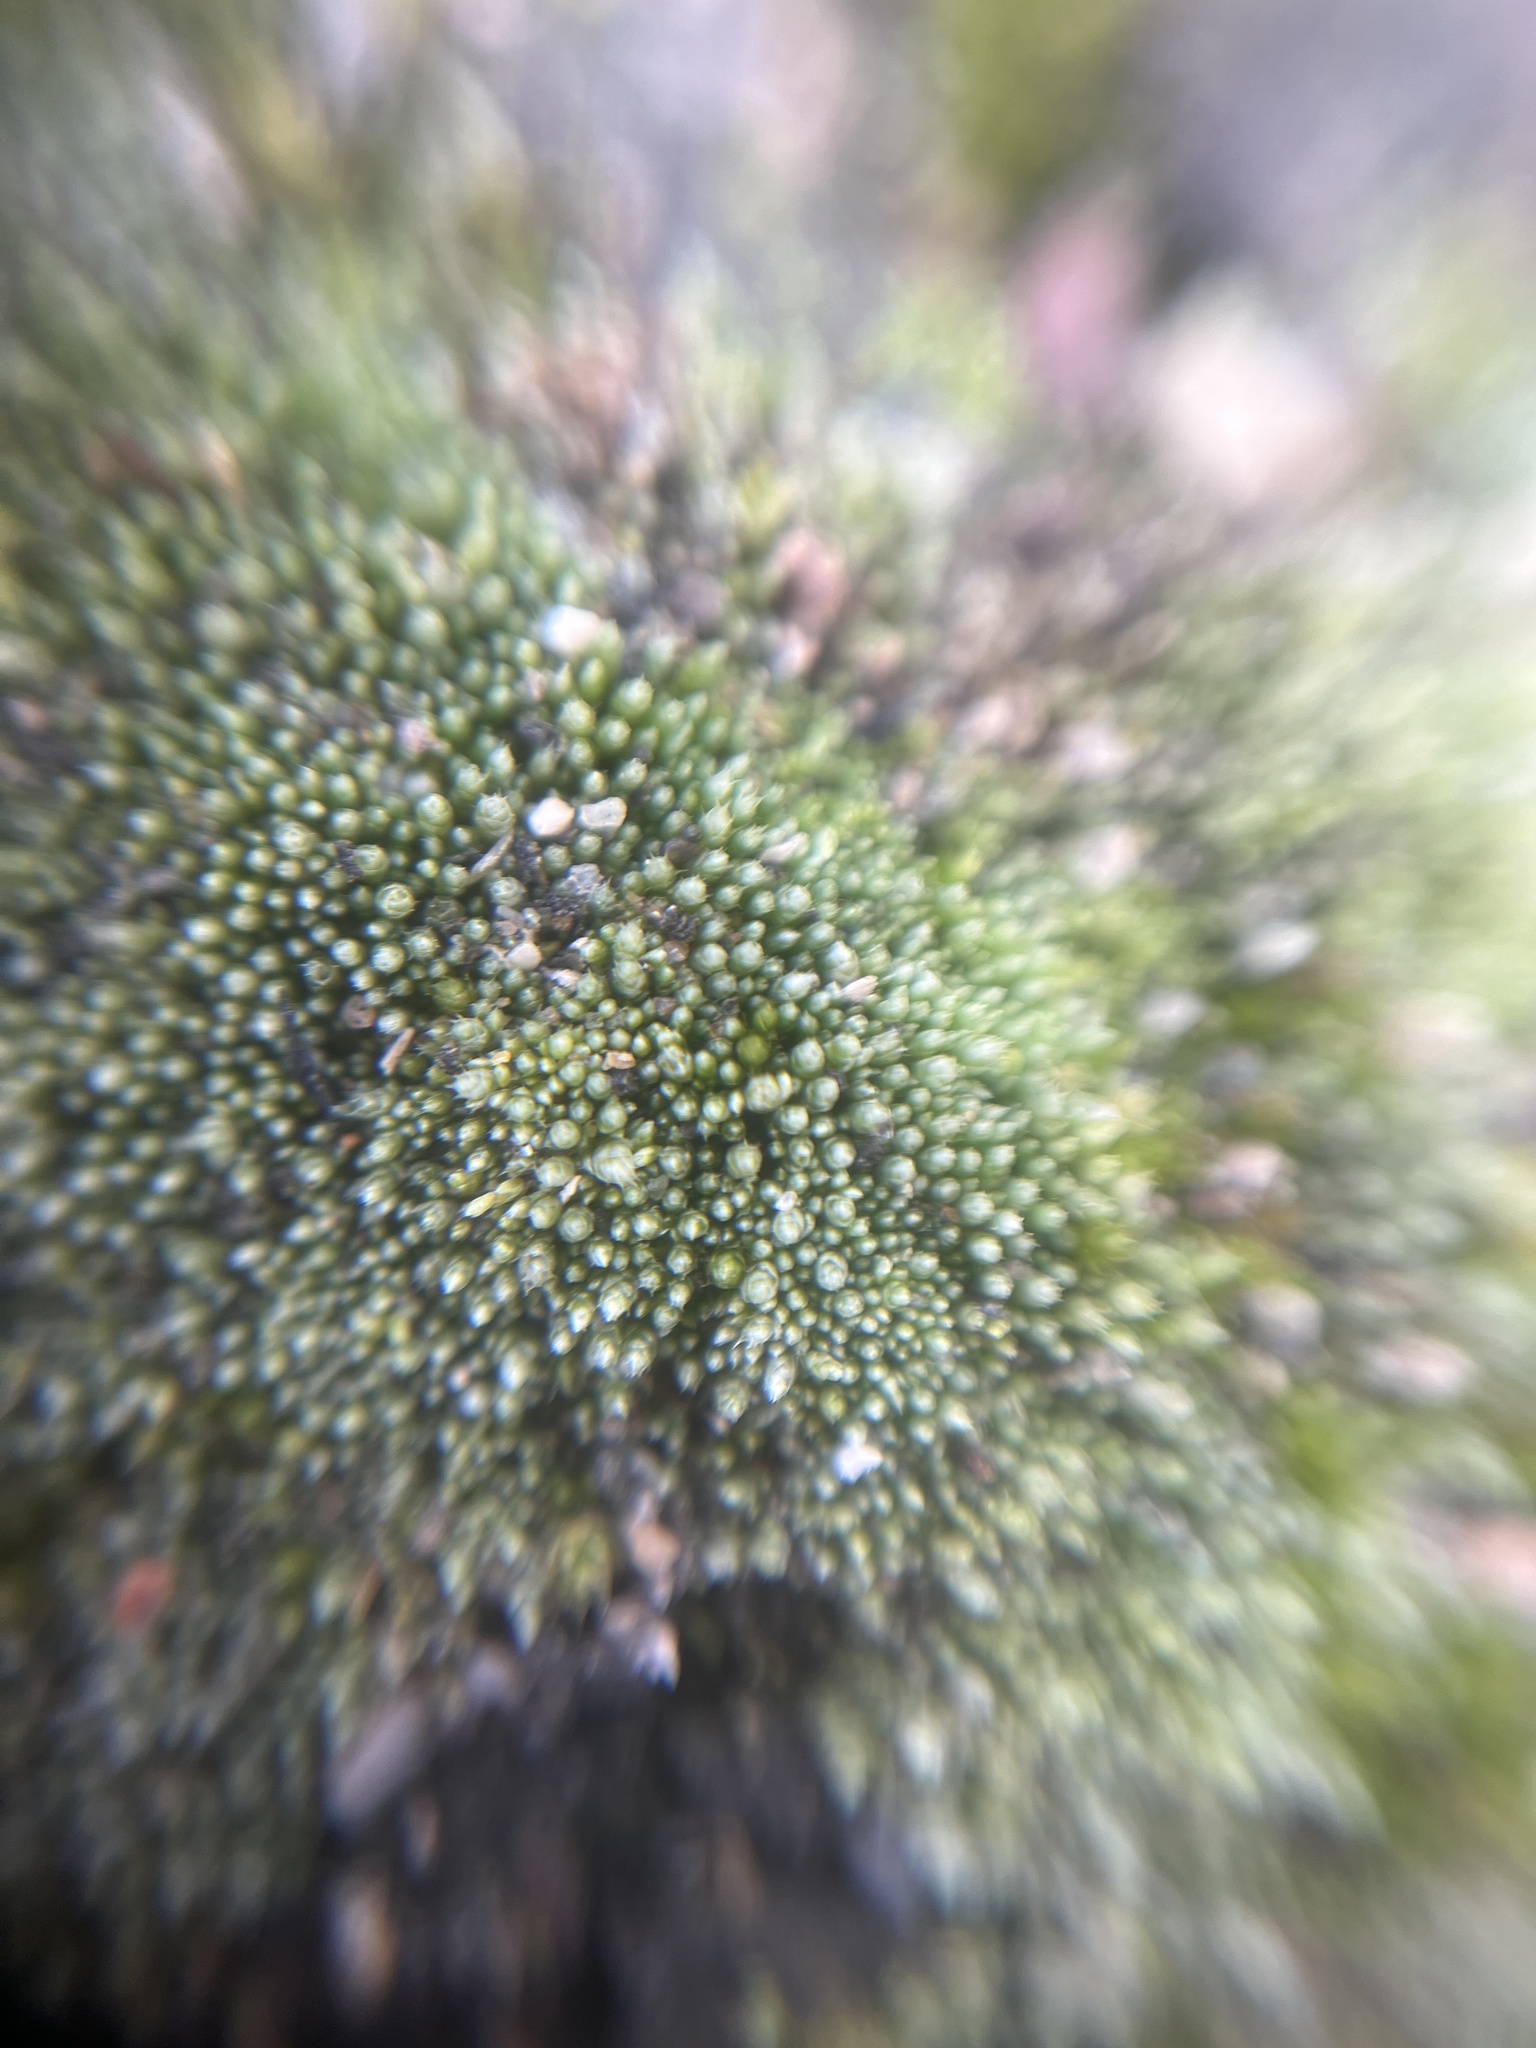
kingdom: Plantae
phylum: Bryophyta
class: Bryopsida
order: Bryales
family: Bryaceae
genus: Bryum
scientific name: Bryum argenteum
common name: Silver-moss
